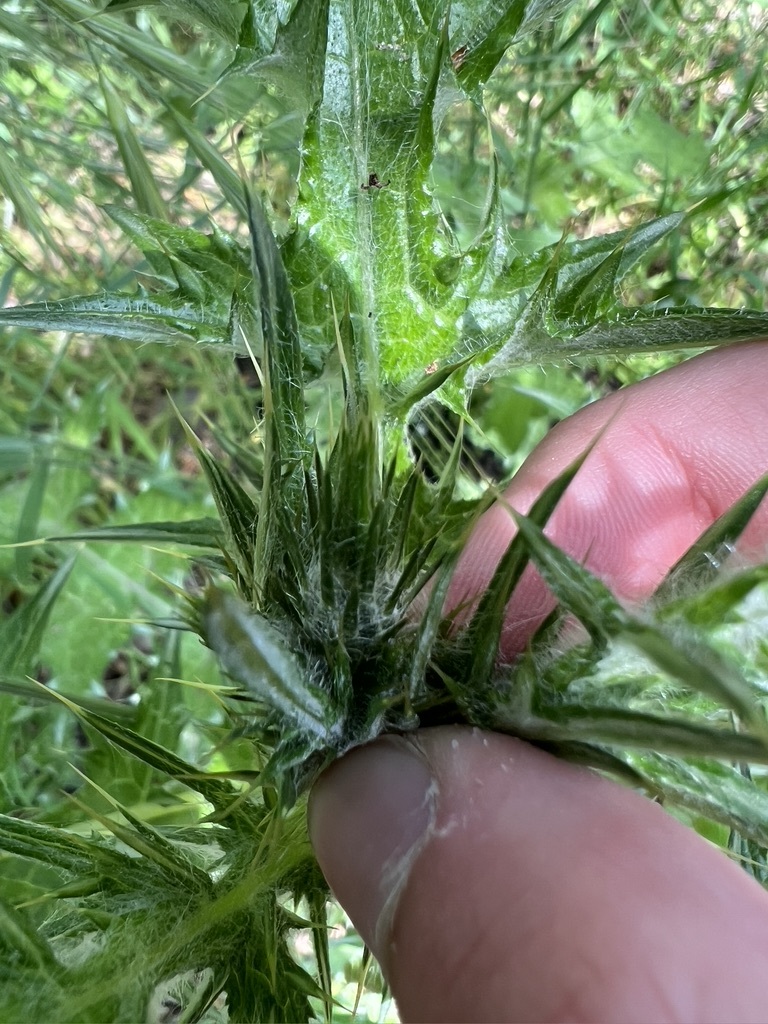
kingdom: Plantae
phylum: Tracheophyta
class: Magnoliopsida
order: Asterales
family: Asteraceae
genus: Carduus
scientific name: Carduus pycnocephalus
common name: Plymouth thistle
